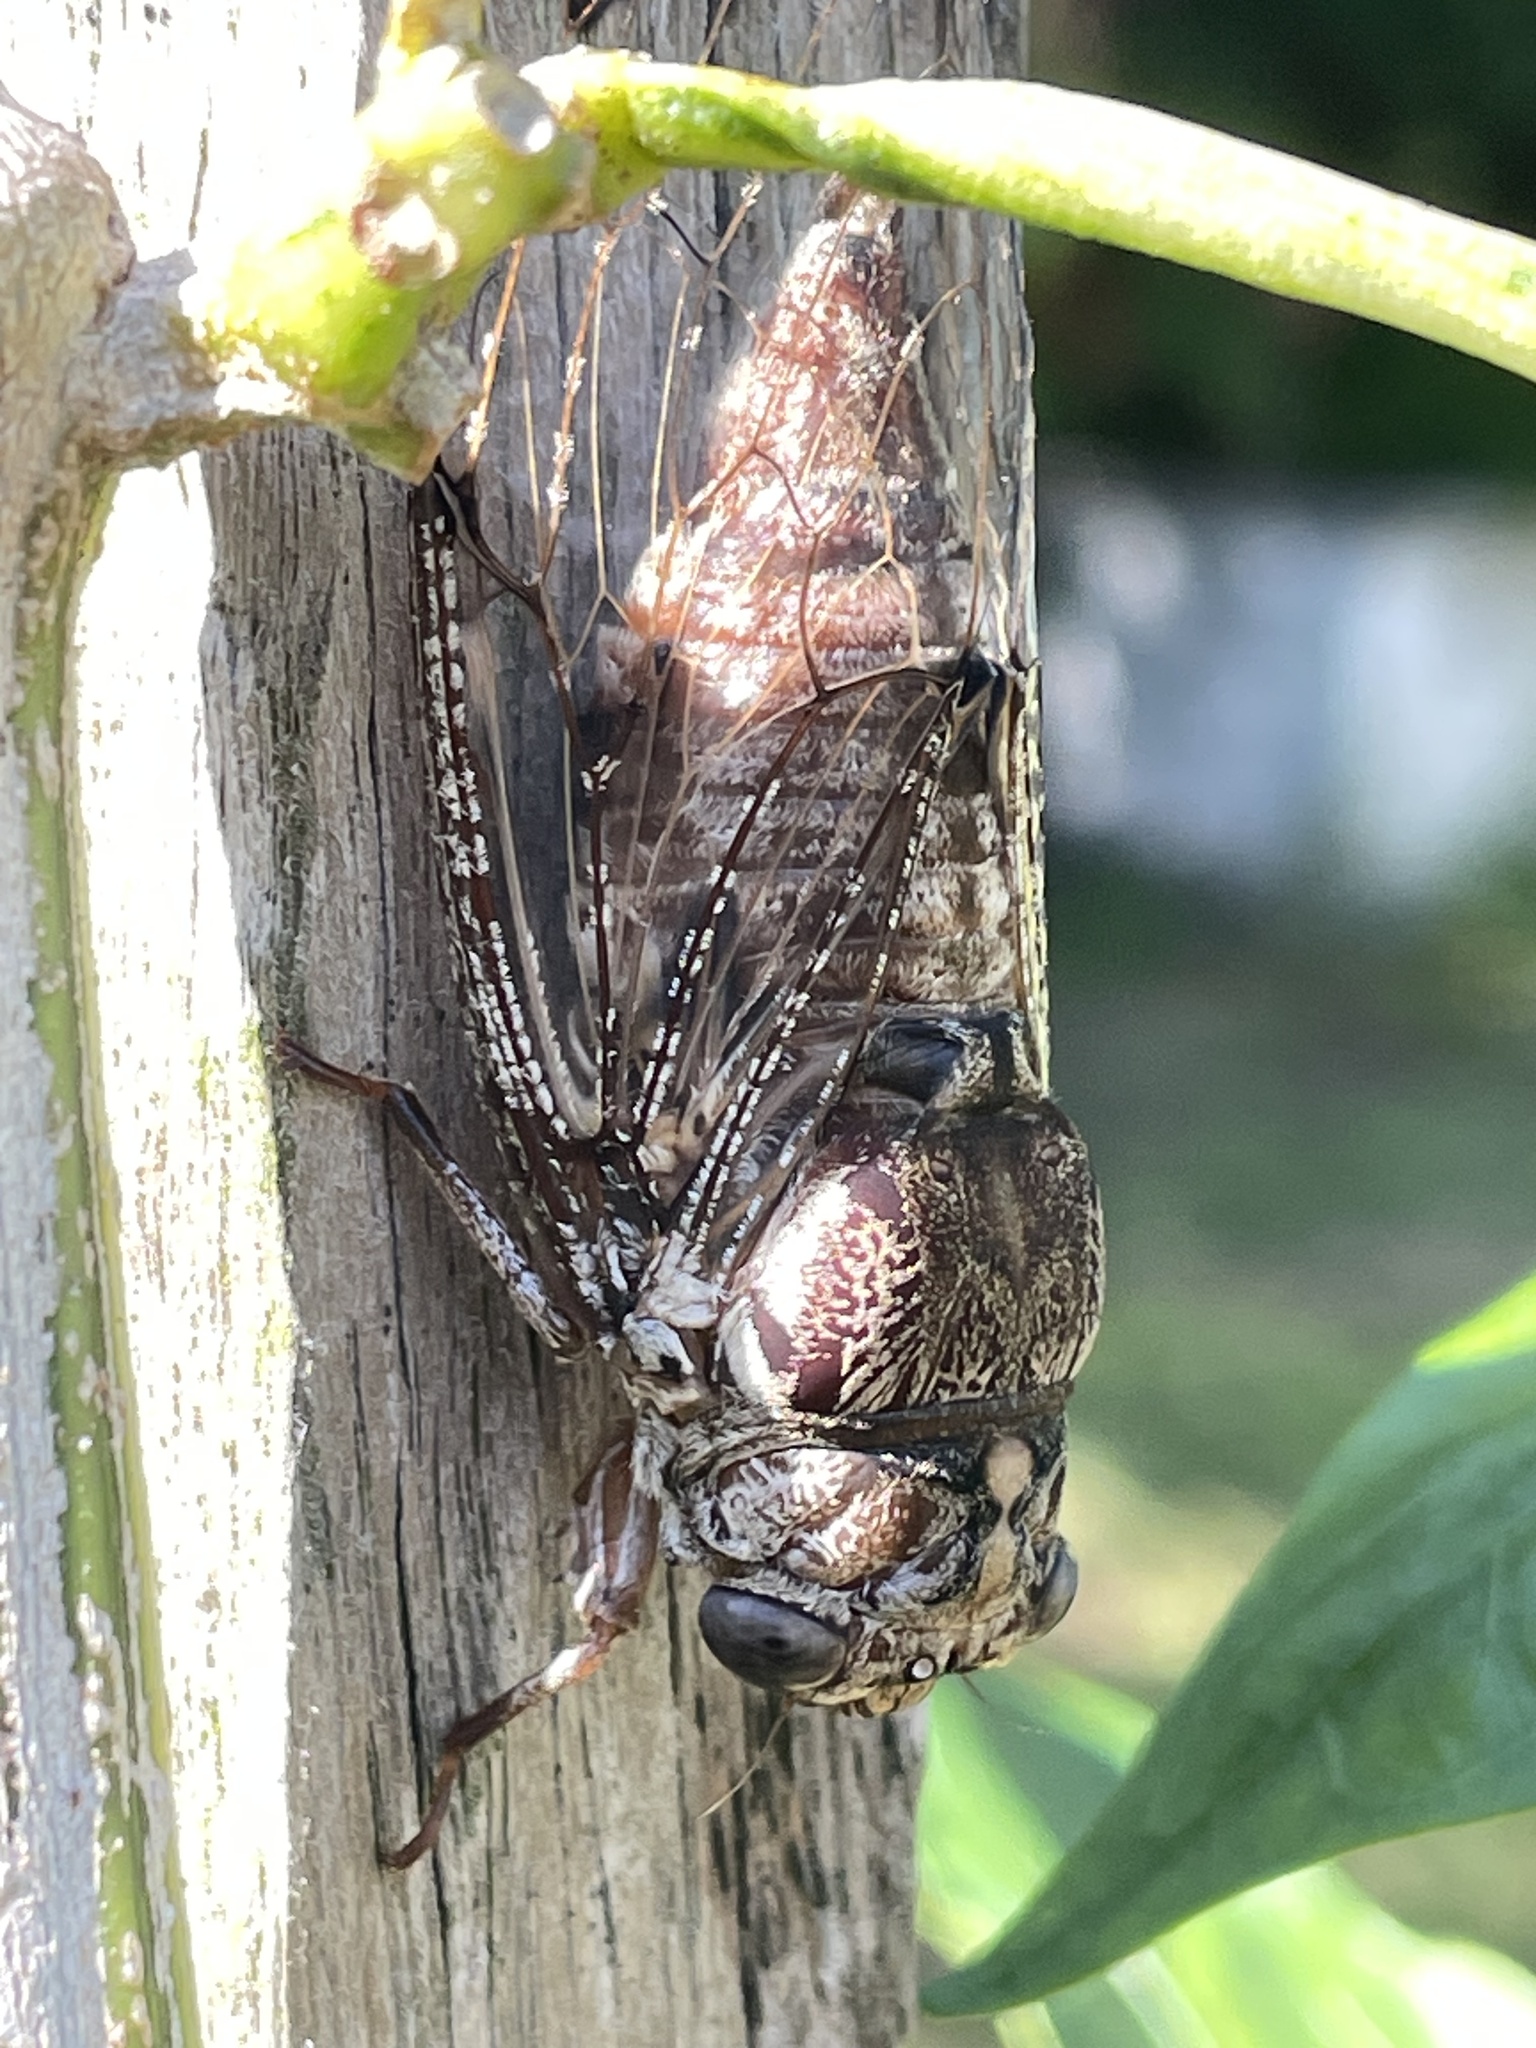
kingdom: Animalia
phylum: Arthropoda
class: Insecta
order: Hemiptera
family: Cicadidae
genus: Aleeta
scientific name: Aleeta curvicosta
